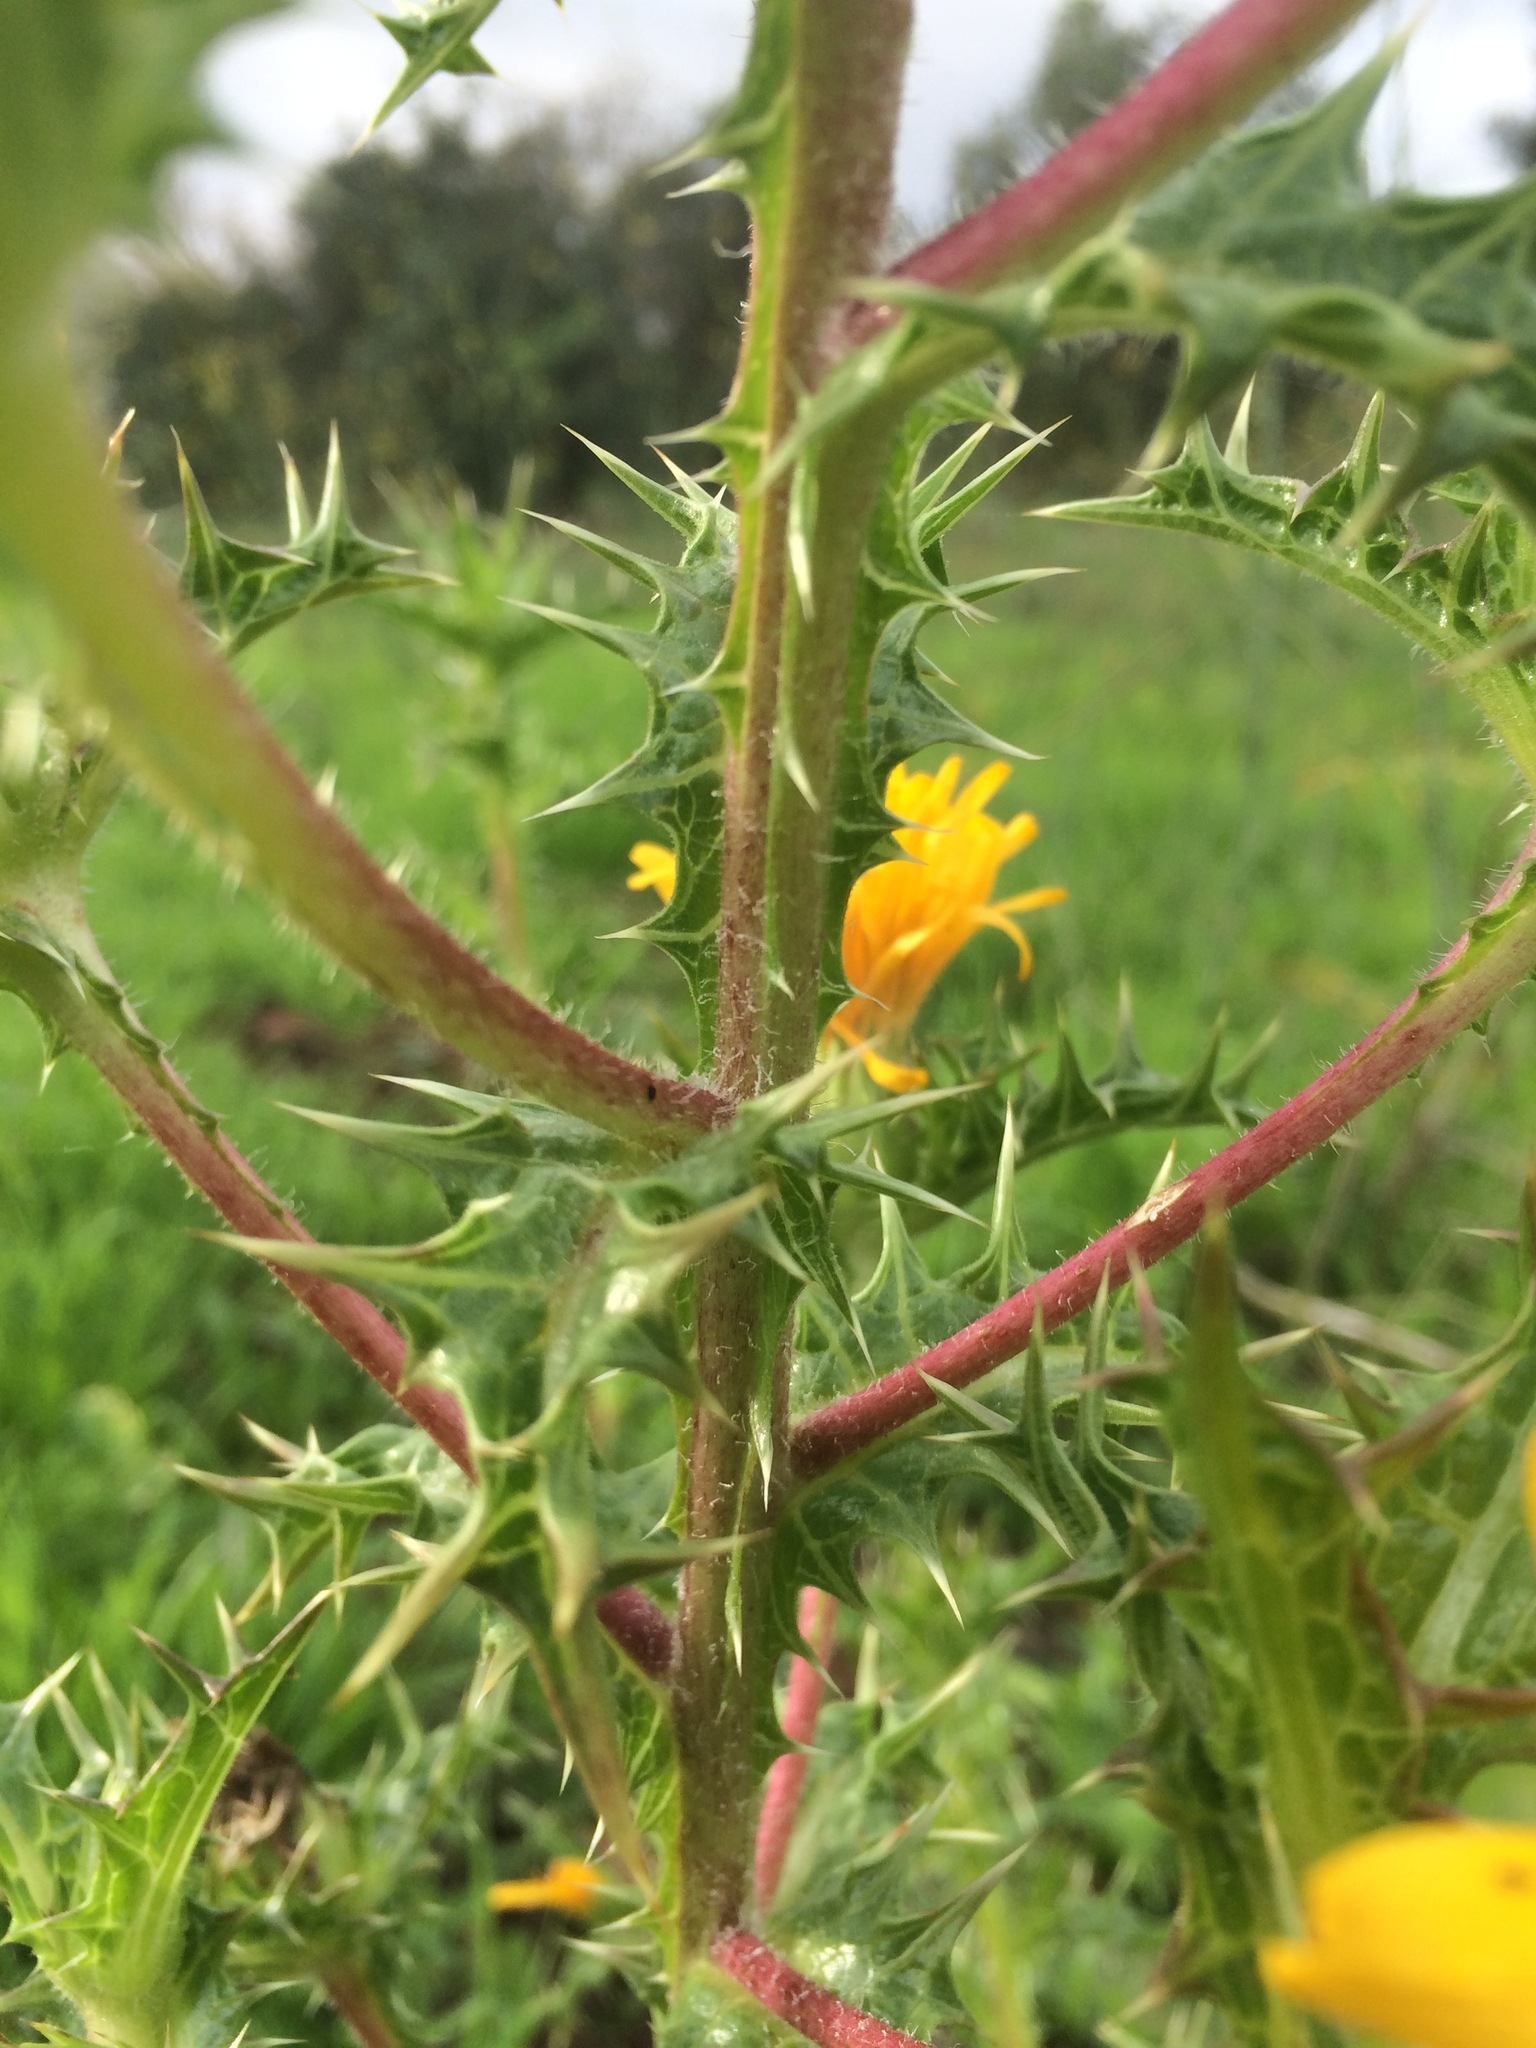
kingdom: Plantae
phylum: Tracheophyta
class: Magnoliopsida
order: Asterales
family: Asteraceae
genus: Scolymus
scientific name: Scolymus hispanicus
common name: Golden thistle
